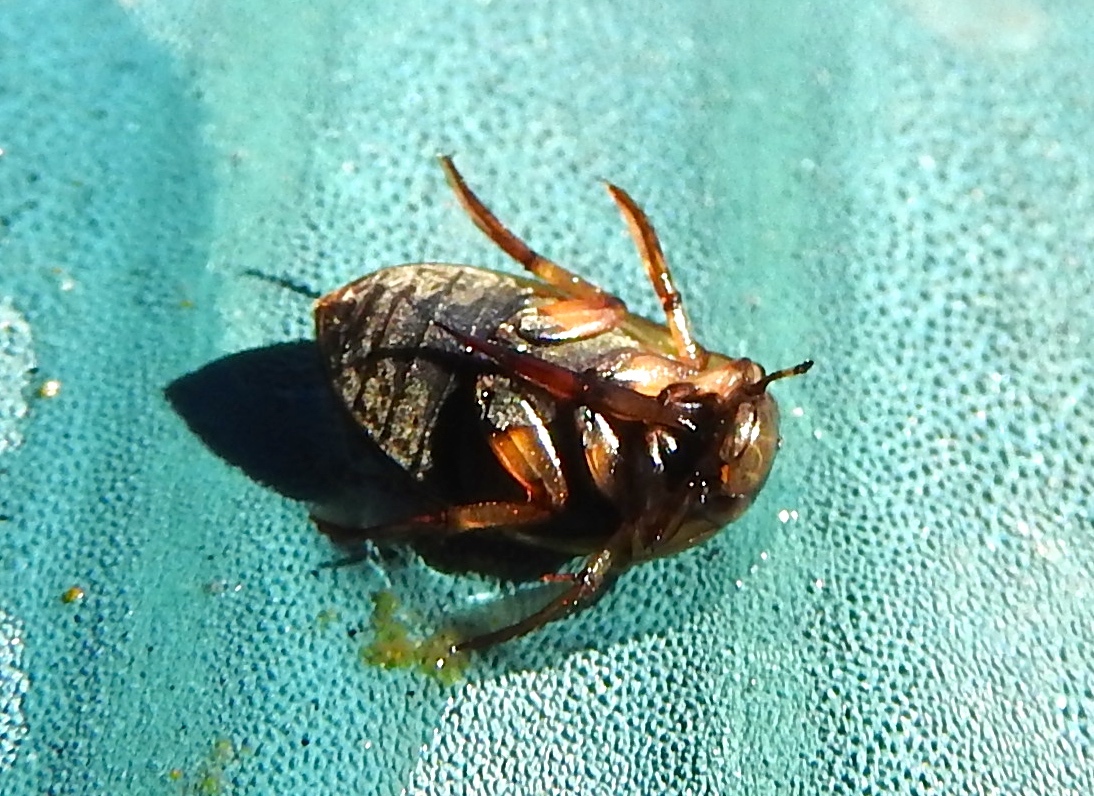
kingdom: Animalia
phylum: Arthropoda
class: Insecta
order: Coleoptera
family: Hydrophilidae
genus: Tropisternus
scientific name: Tropisternus collaris
